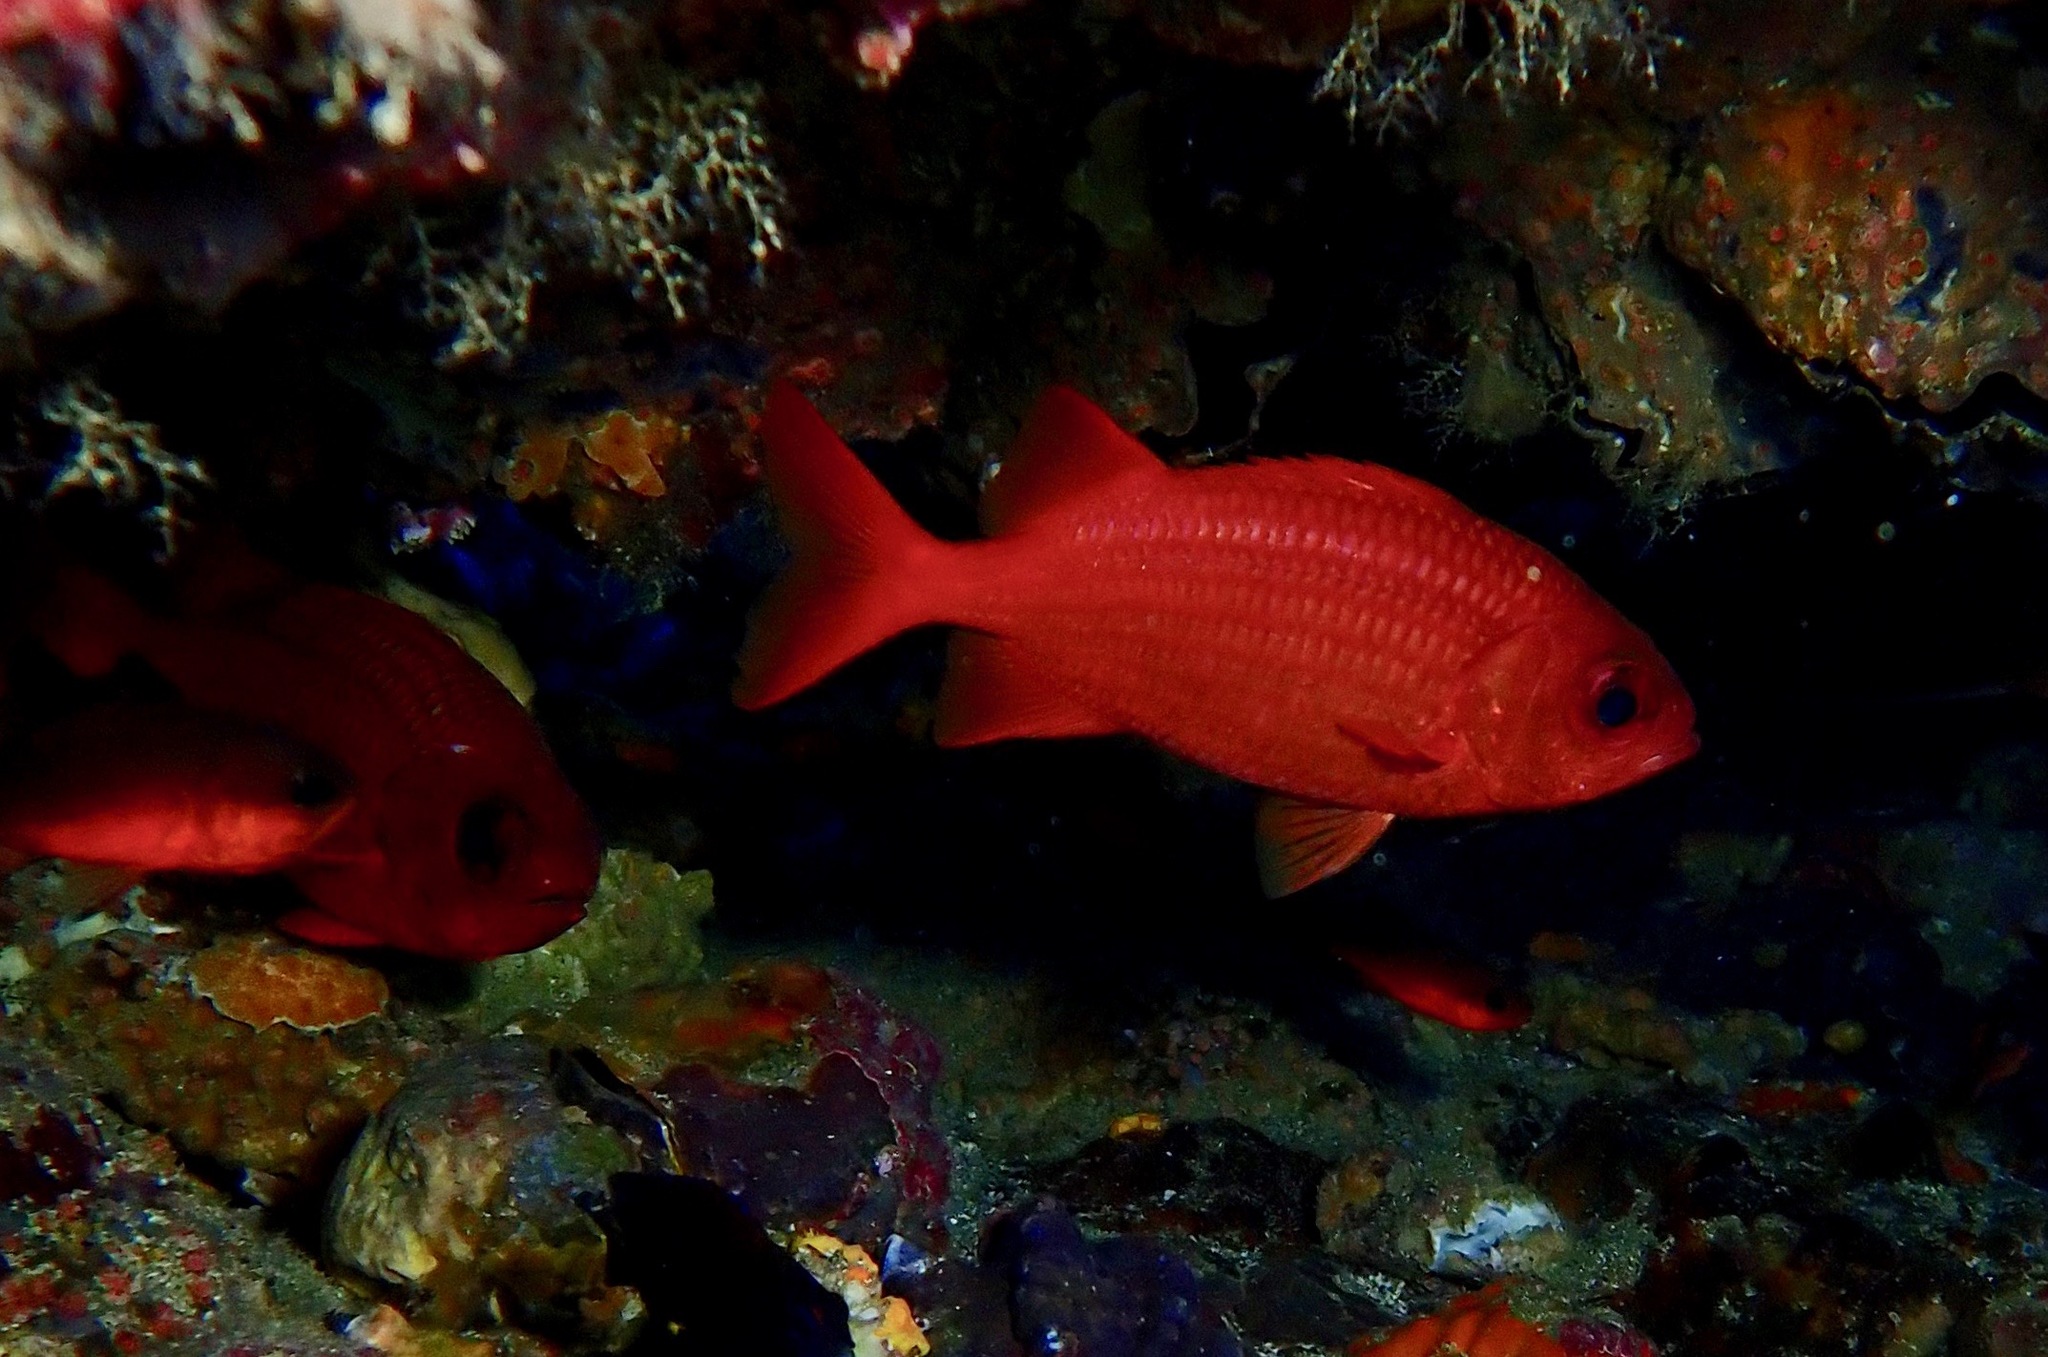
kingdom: Animalia
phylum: Chordata
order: Beryciformes
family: Holocentridae
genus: Myripristis
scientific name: Myripristis leiognathus
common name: Panamic soldierfish
